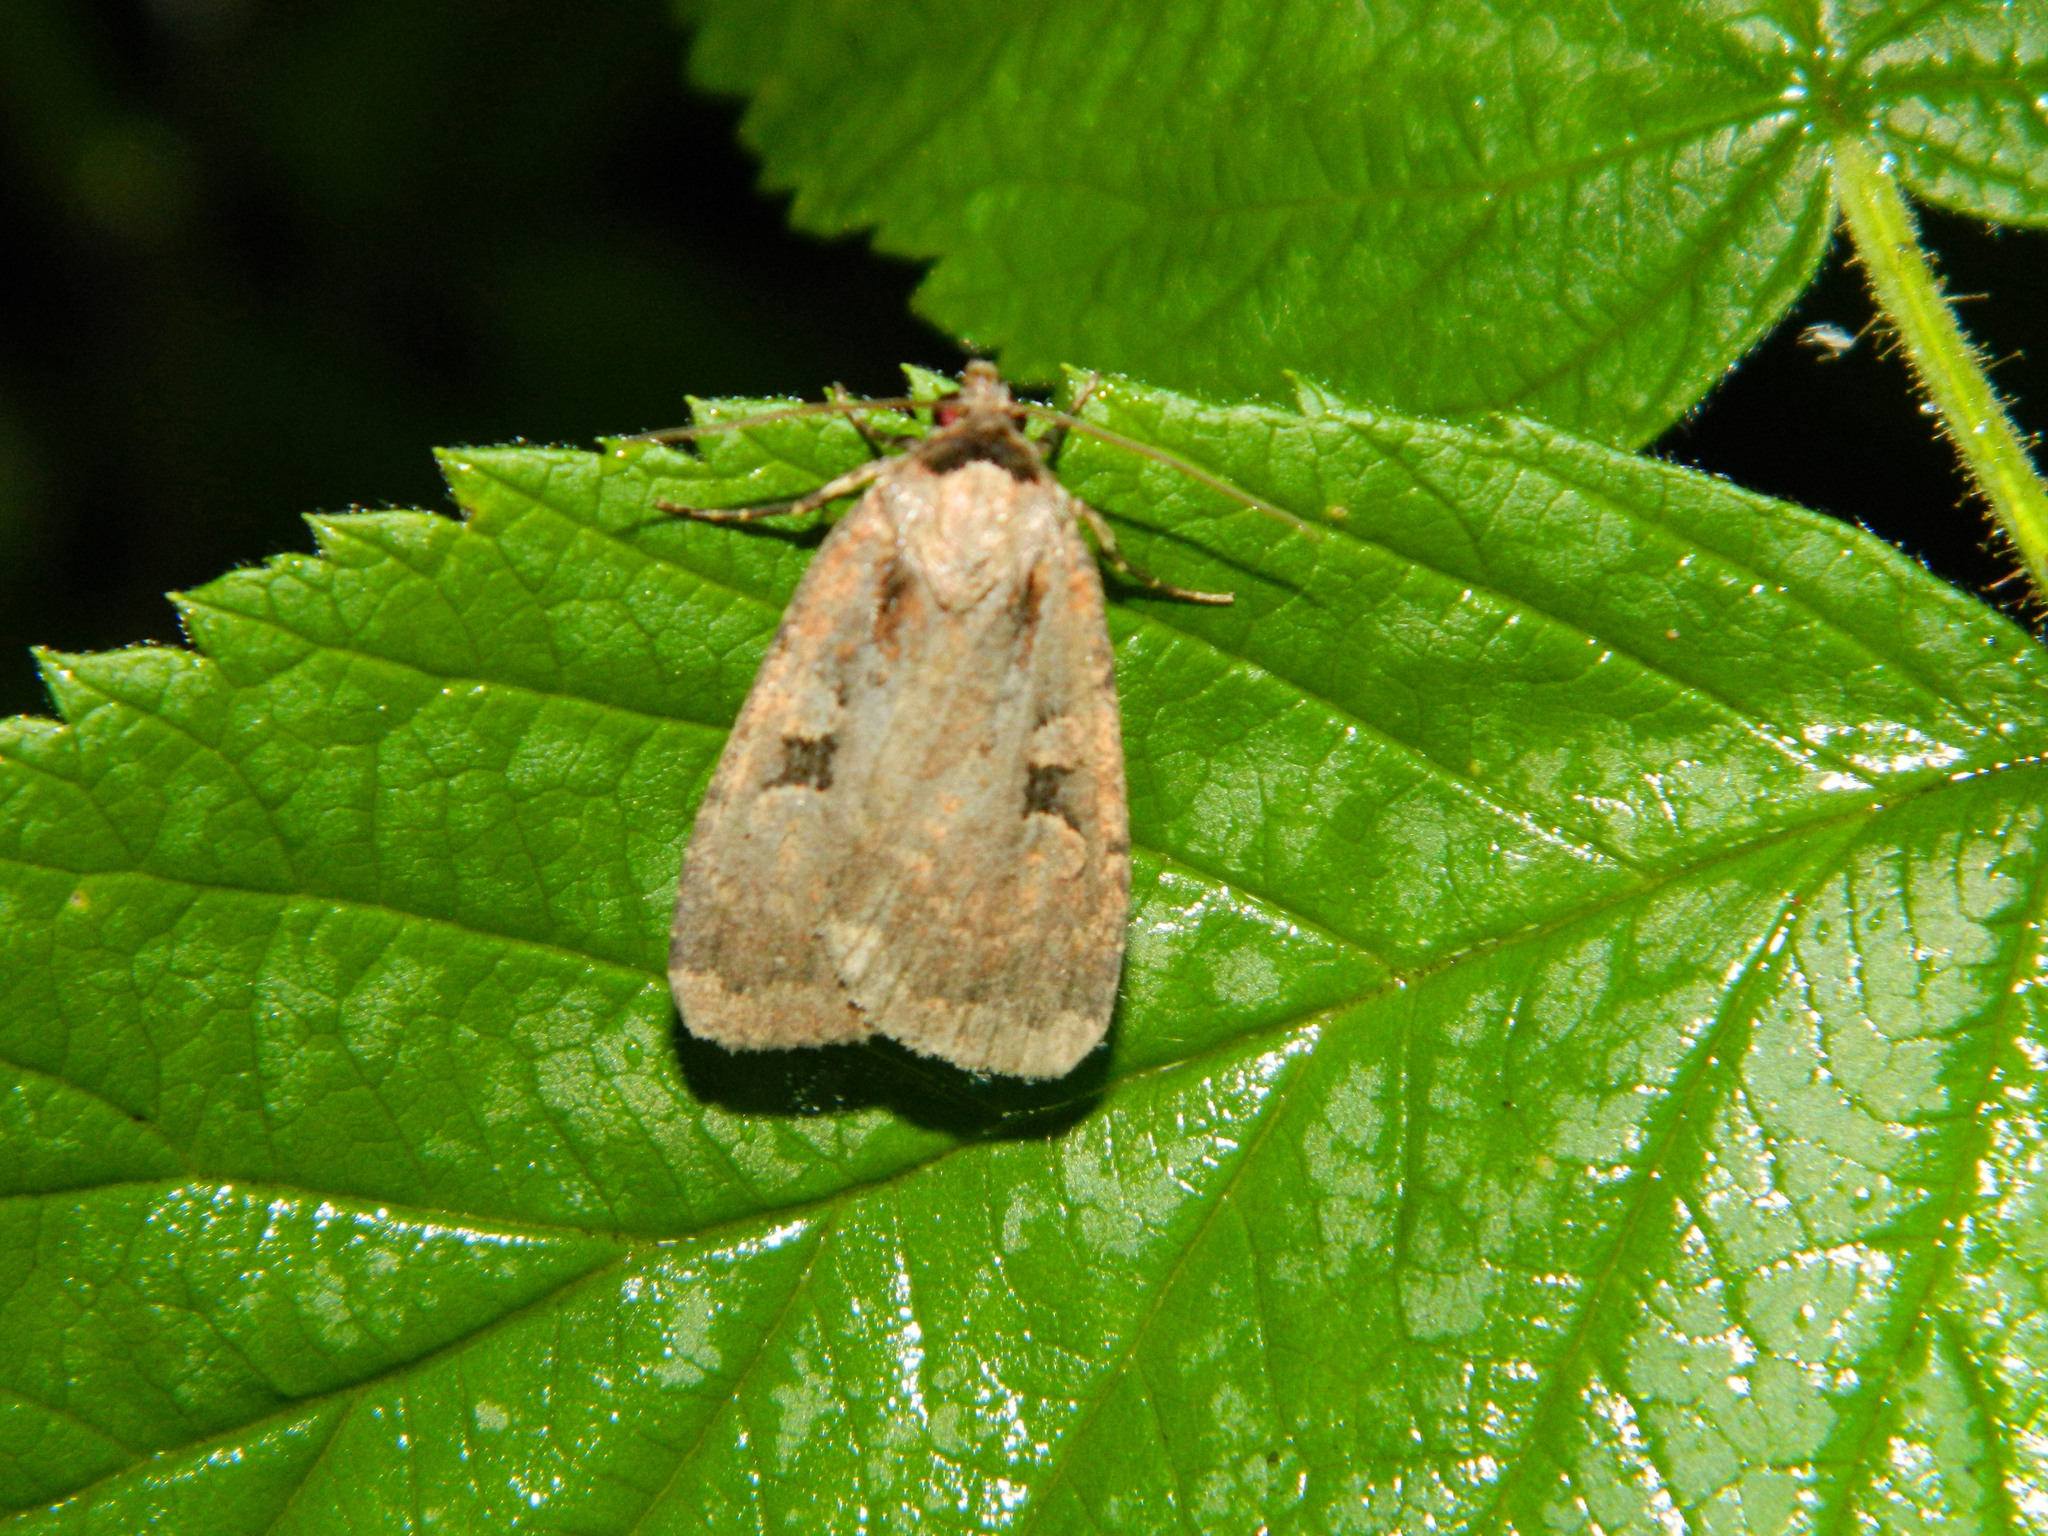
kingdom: Animalia
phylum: Arthropoda
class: Insecta
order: Lepidoptera
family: Noctuidae
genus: Eueretagrotis
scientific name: Eueretagrotis perattentus
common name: Two-spot dart moth
